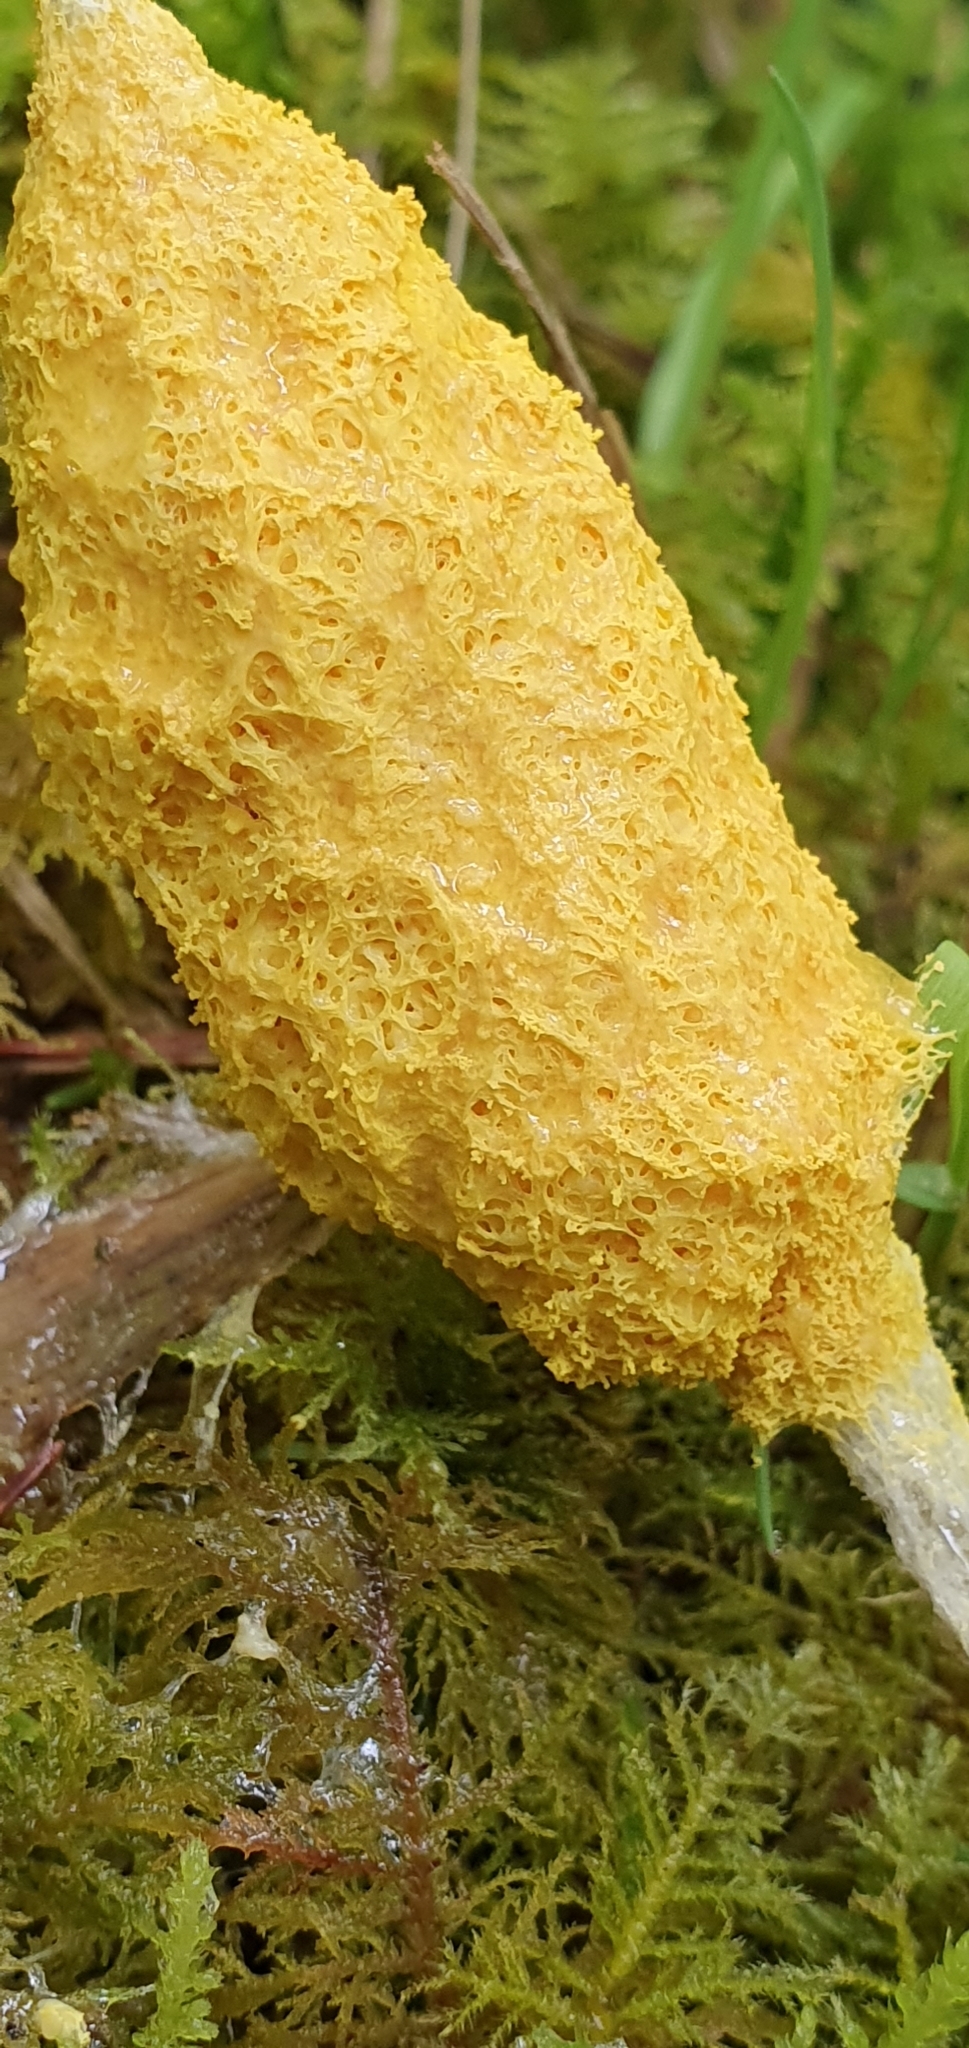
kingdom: Protozoa
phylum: Mycetozoa
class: Myxomycetes
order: Physarales
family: Physaraceae
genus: Fuligo
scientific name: Fuligo septica
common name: Dog vomit slime mold
